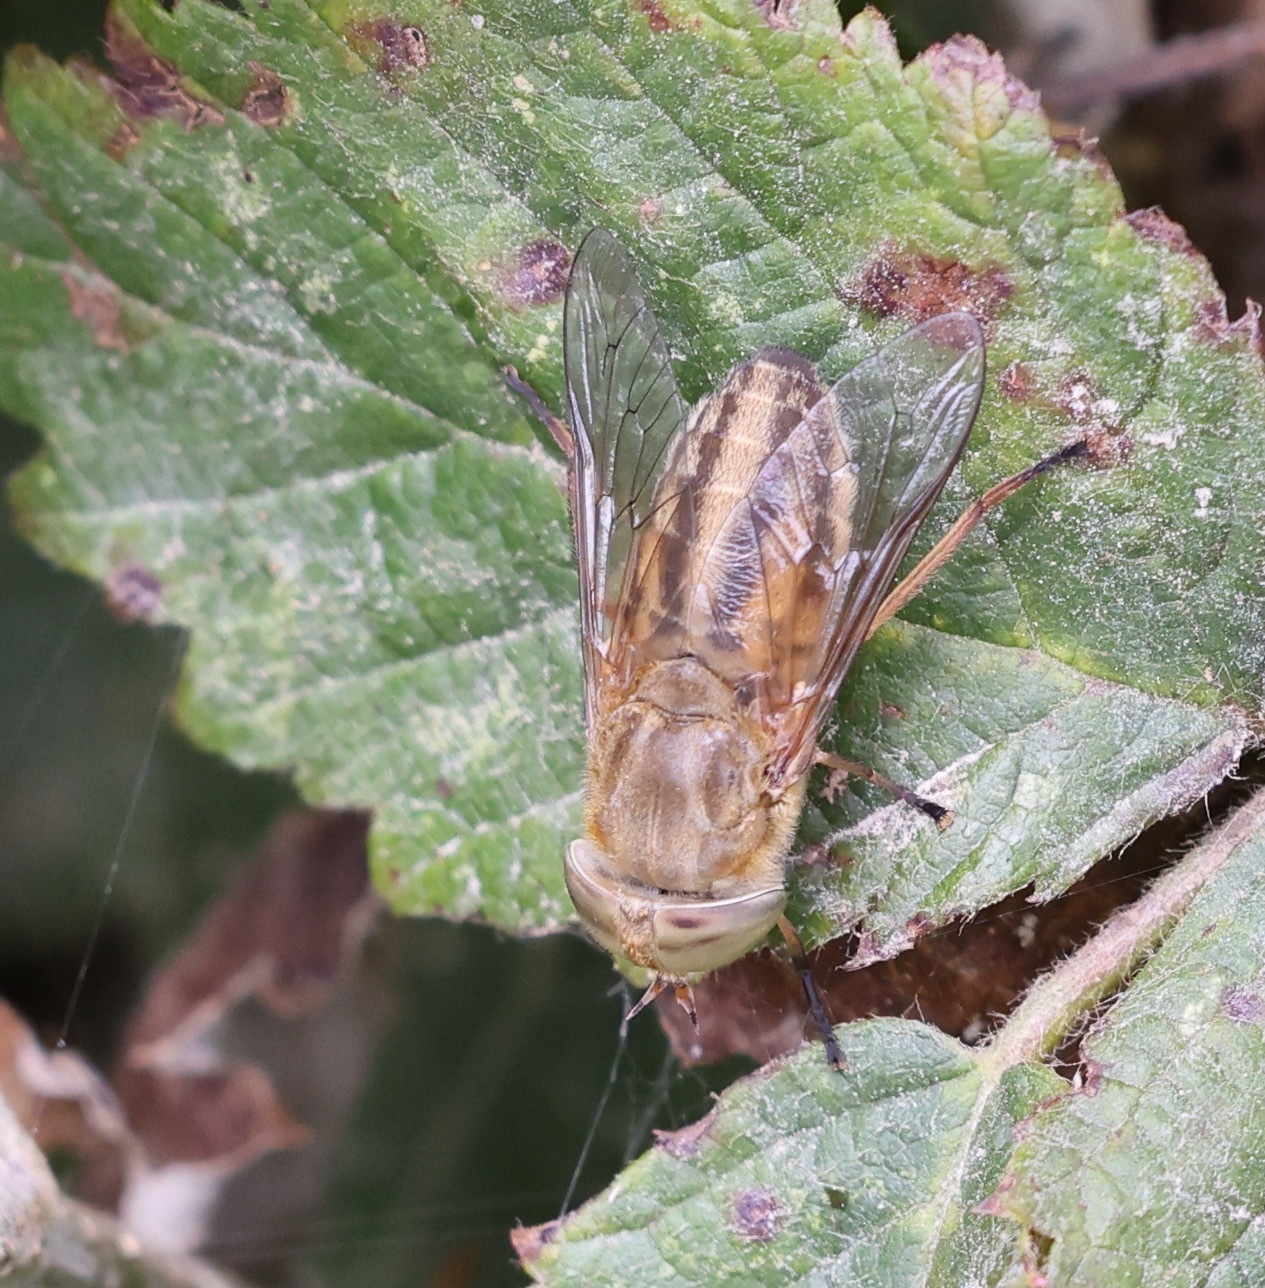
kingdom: Animalia
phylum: Arthropoda
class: Insecta
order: Diptera
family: Tabanidae
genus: Atylotus
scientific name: Atylotus latistriatus
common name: Saltmarsh horsefly
